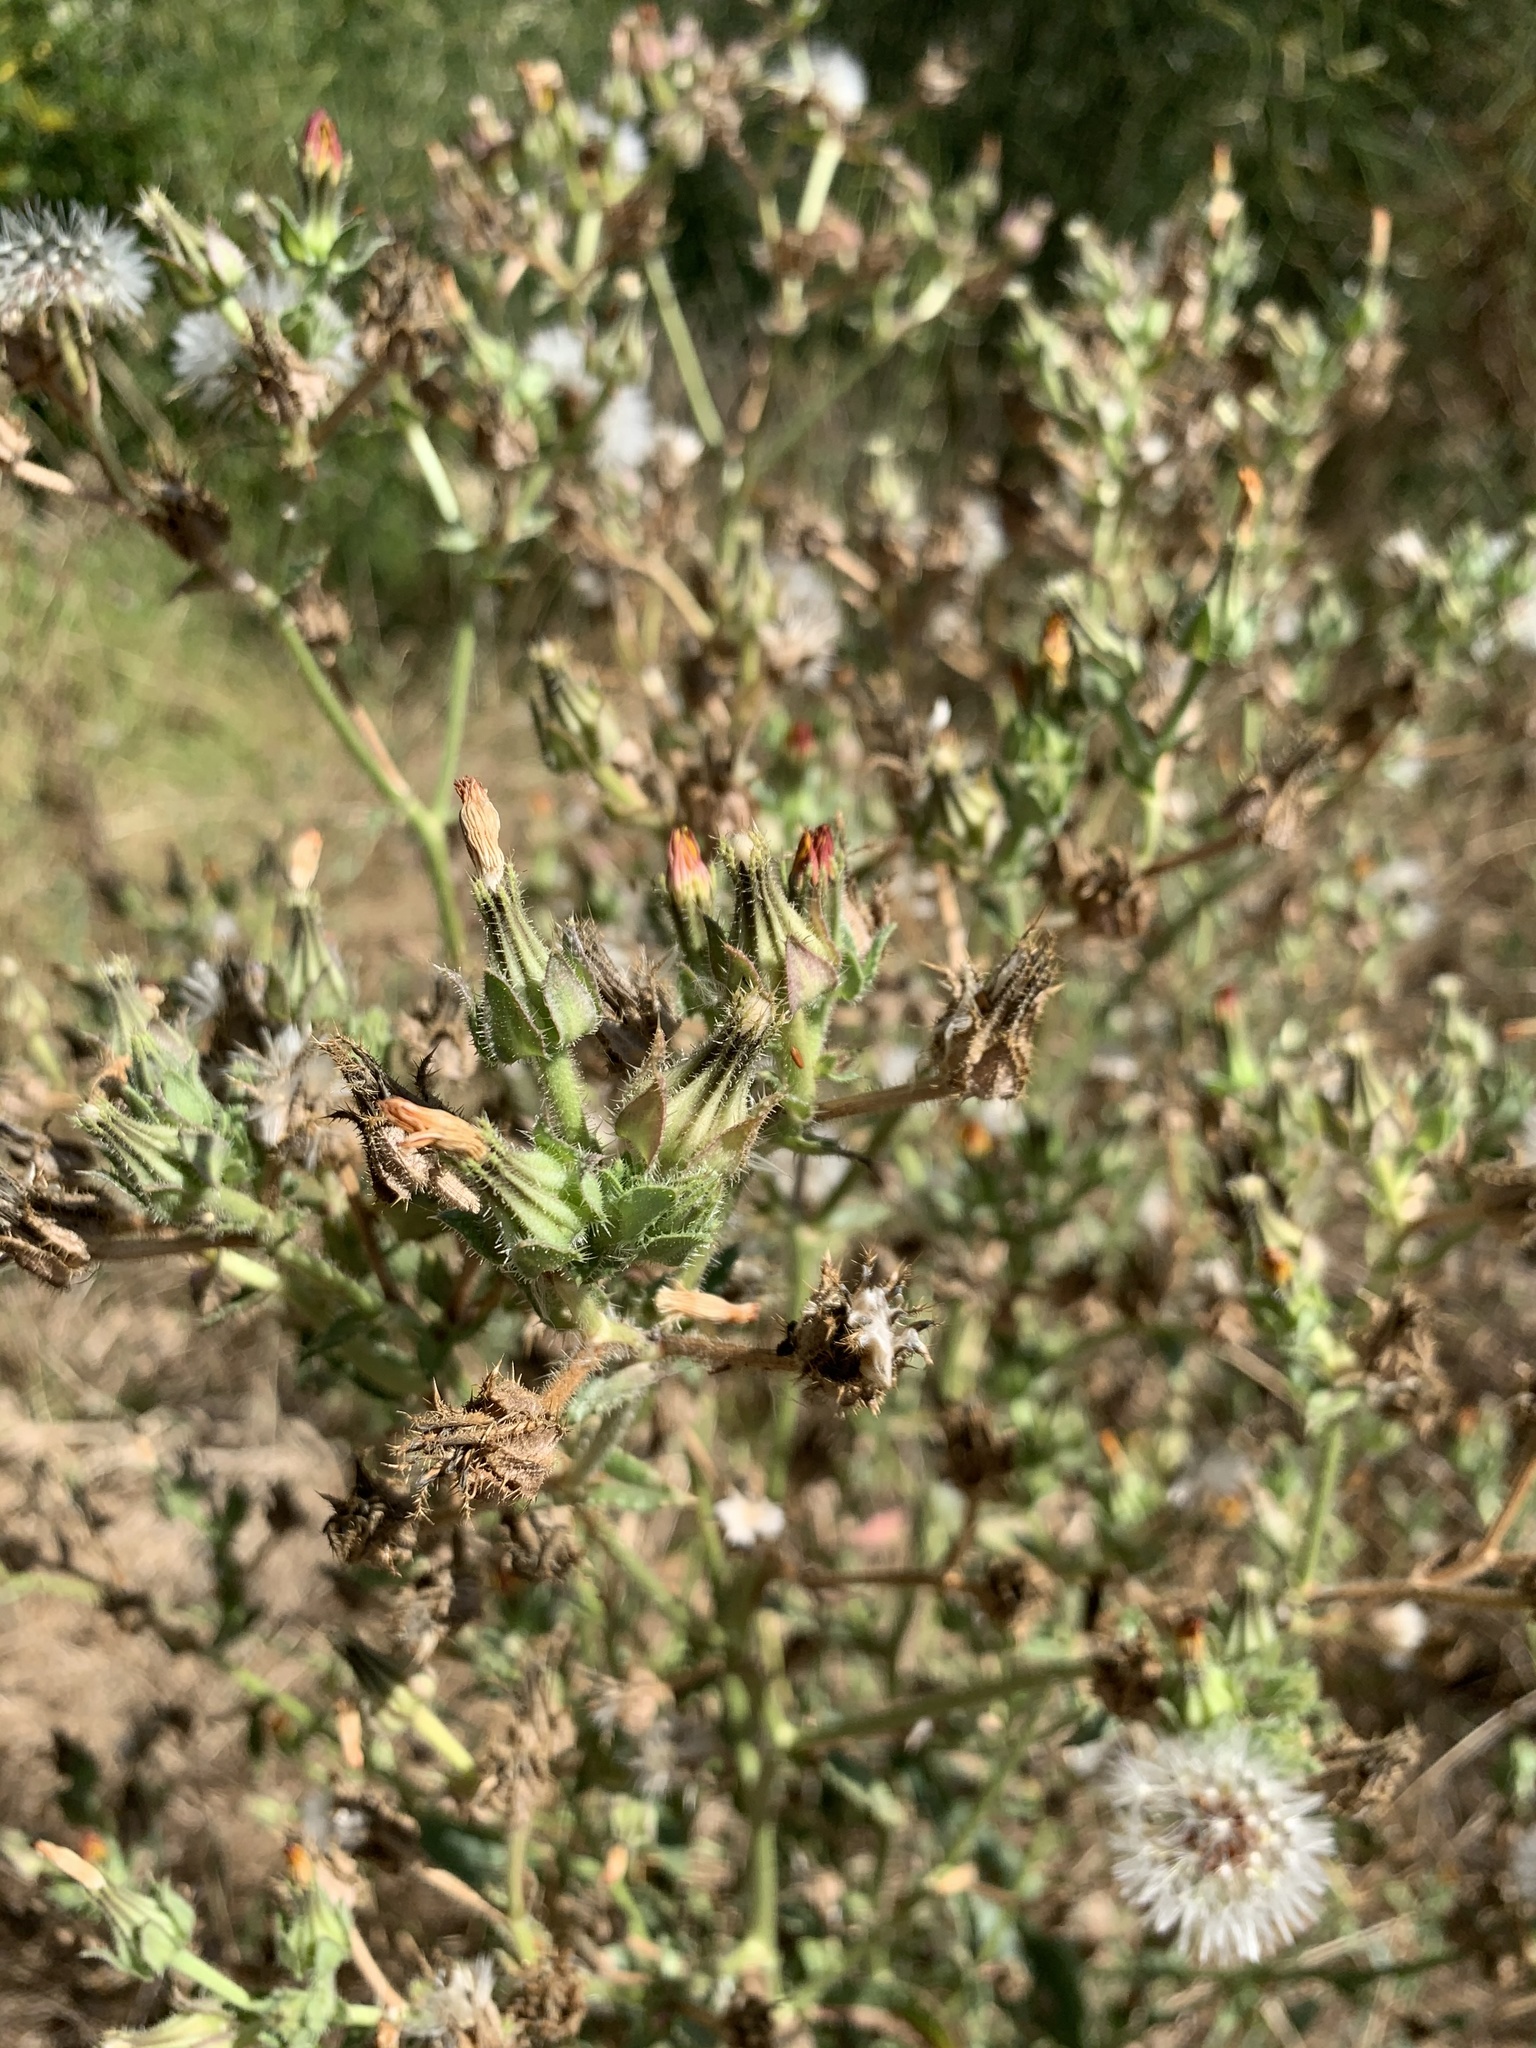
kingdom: Plantae
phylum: Tracheophyta
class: Magnoliopsida
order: Asterales
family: Asteraceae
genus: Helminthotheca
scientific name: Helminthotheca echioides
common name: Ox-tongue
